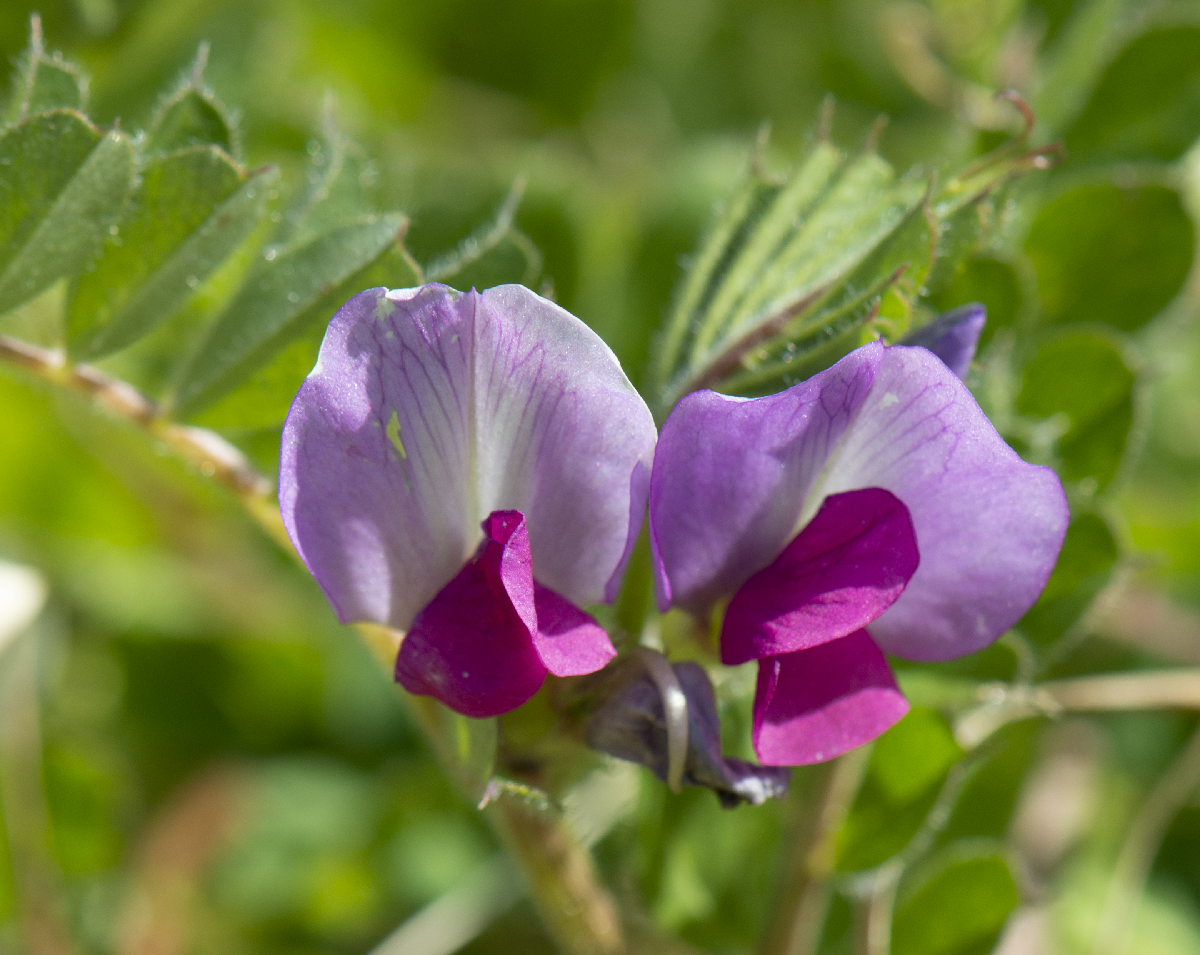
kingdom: Plantae
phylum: Tracheophyta
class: Magnoliopsida
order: Fabales
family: Fabaceae
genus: Vicia
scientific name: Vicia sativa
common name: Garden vetch
